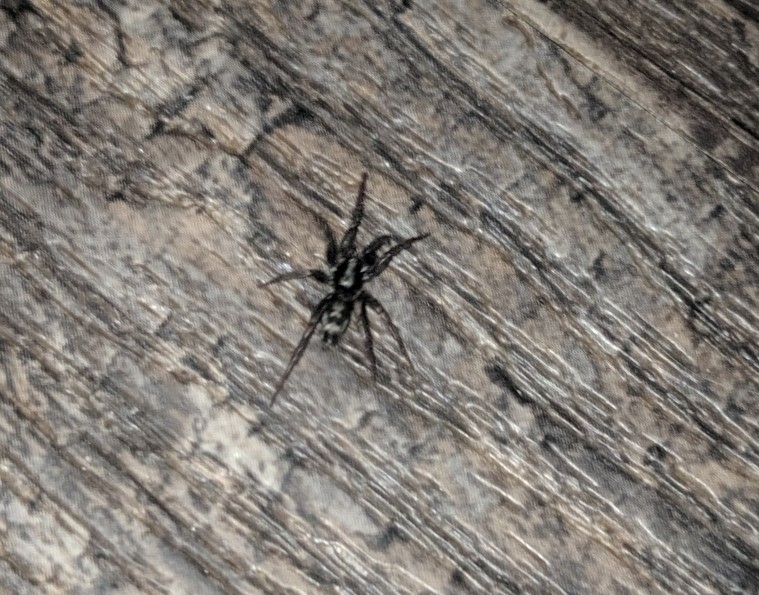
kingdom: Animalia
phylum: Arthropoda
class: Arachnida
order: Araneae
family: Gnaphosidae
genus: Herpyllus
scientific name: Herpyllus ecclesiasticus
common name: Eastern parson spider
